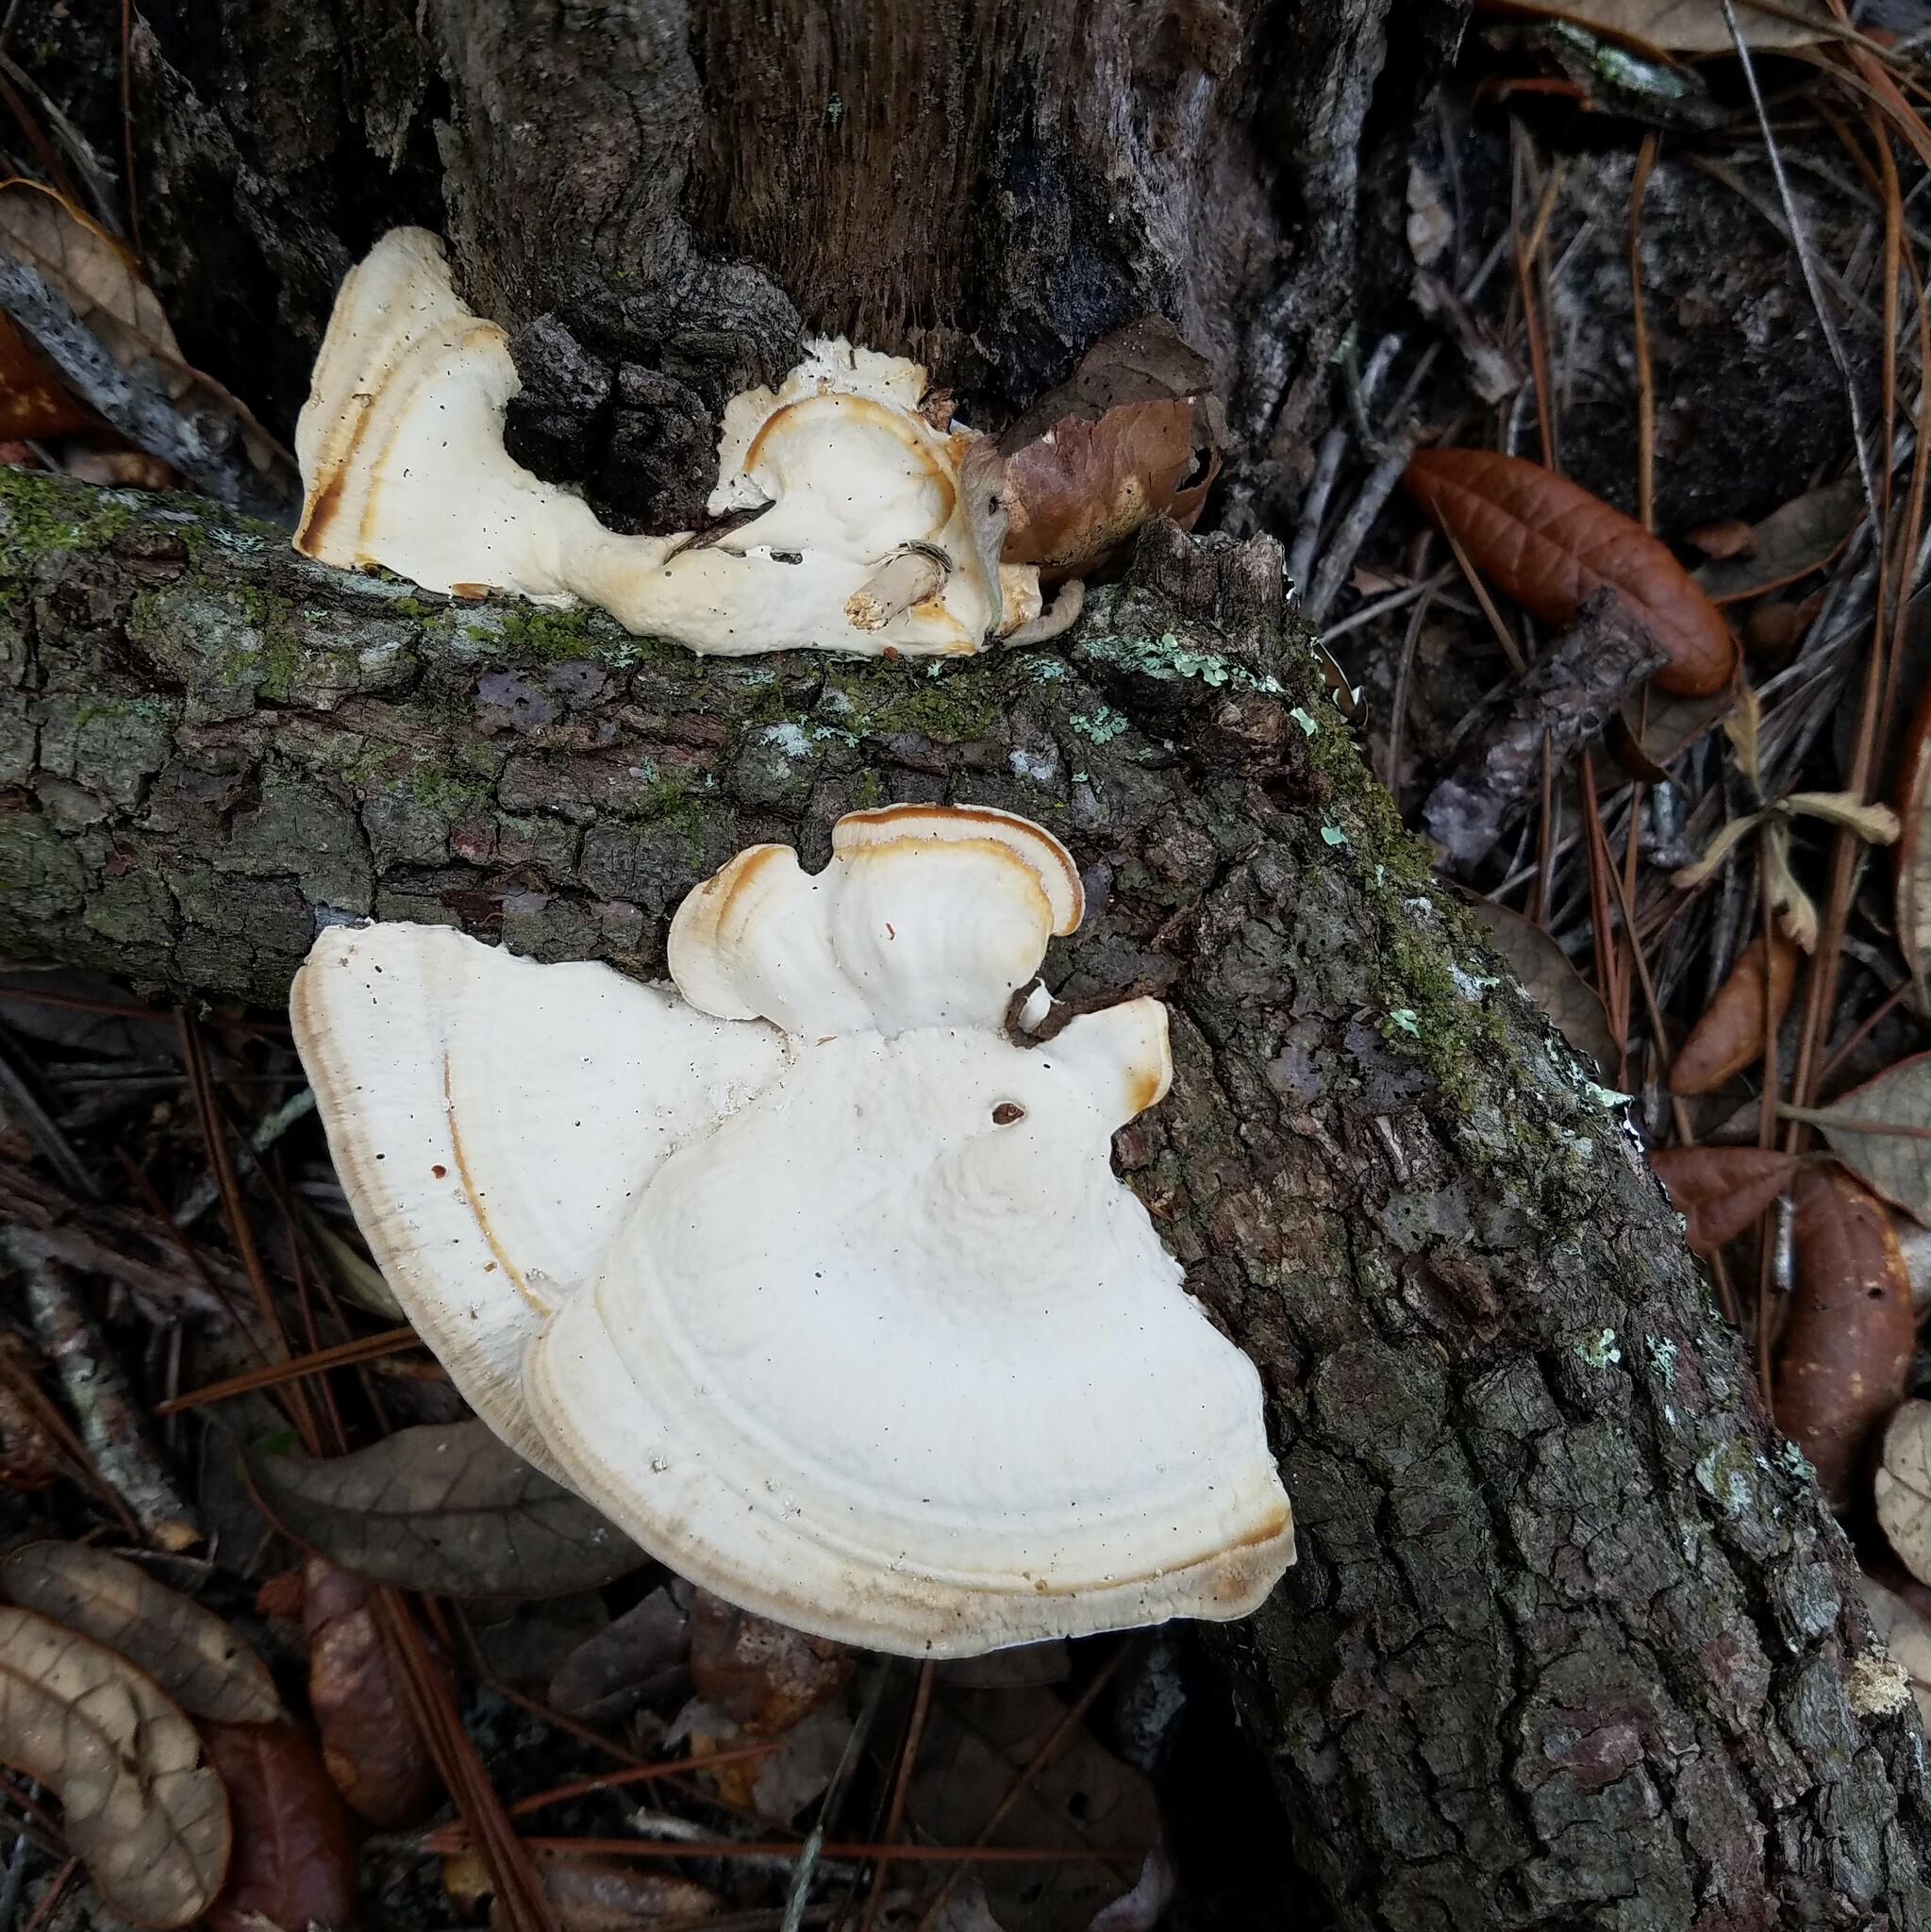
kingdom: Fungi
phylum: Basidiomycota
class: Agaricomycetes
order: Polyporales
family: Polyporaceae
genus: Trametes
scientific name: Trametes lactinea
